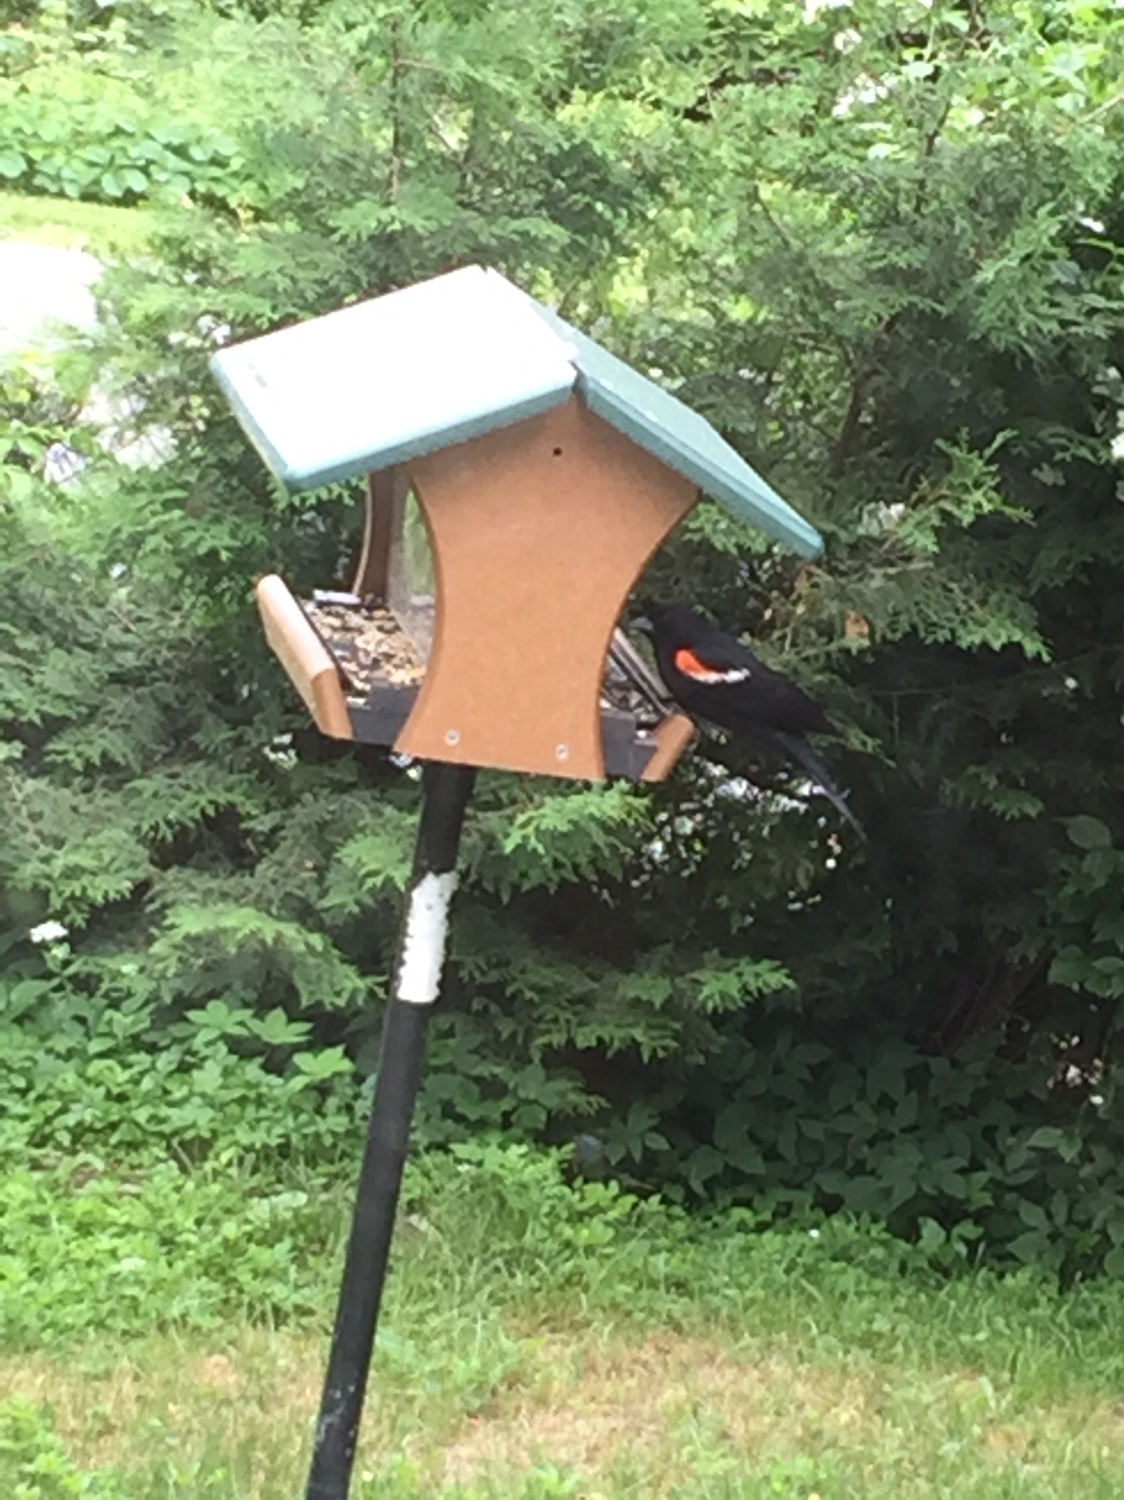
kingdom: Animalia
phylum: Chordata
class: Aves
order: Passeriformes
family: Icteridae
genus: Agelaius
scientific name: Agelaius phoeniceus
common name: Red-winged blackbird
